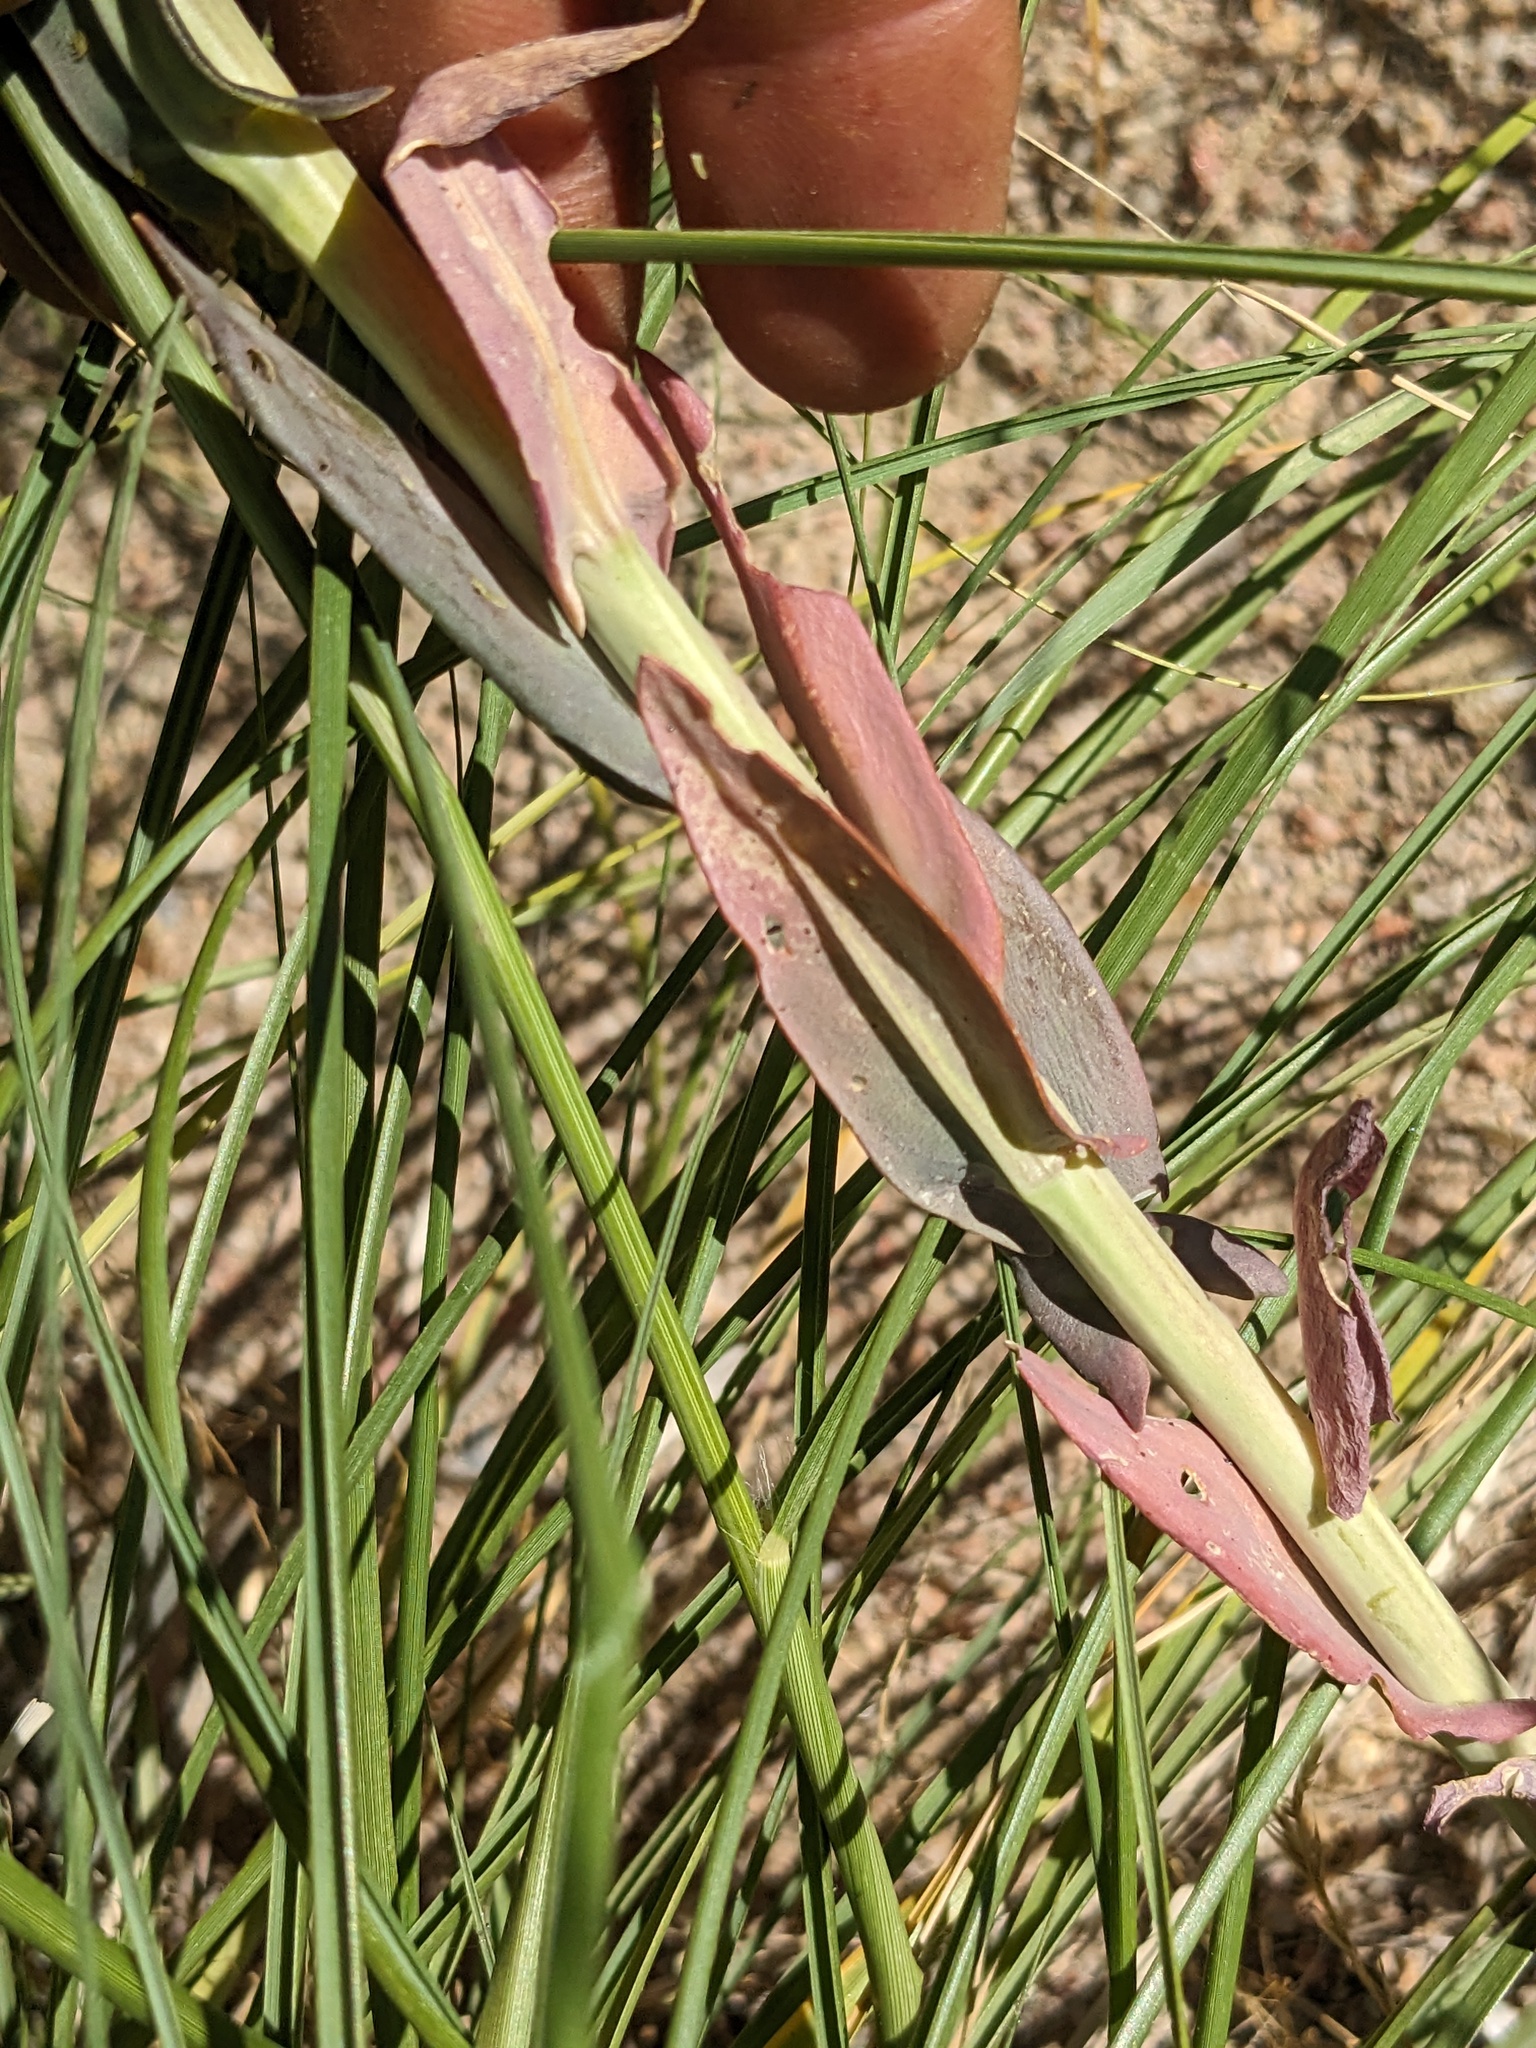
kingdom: Plantae
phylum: Tracheophyta
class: Magnoliopsida
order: Brassicales
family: Brassicaceae
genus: Thelypodium
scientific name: Thelypodium crispum
